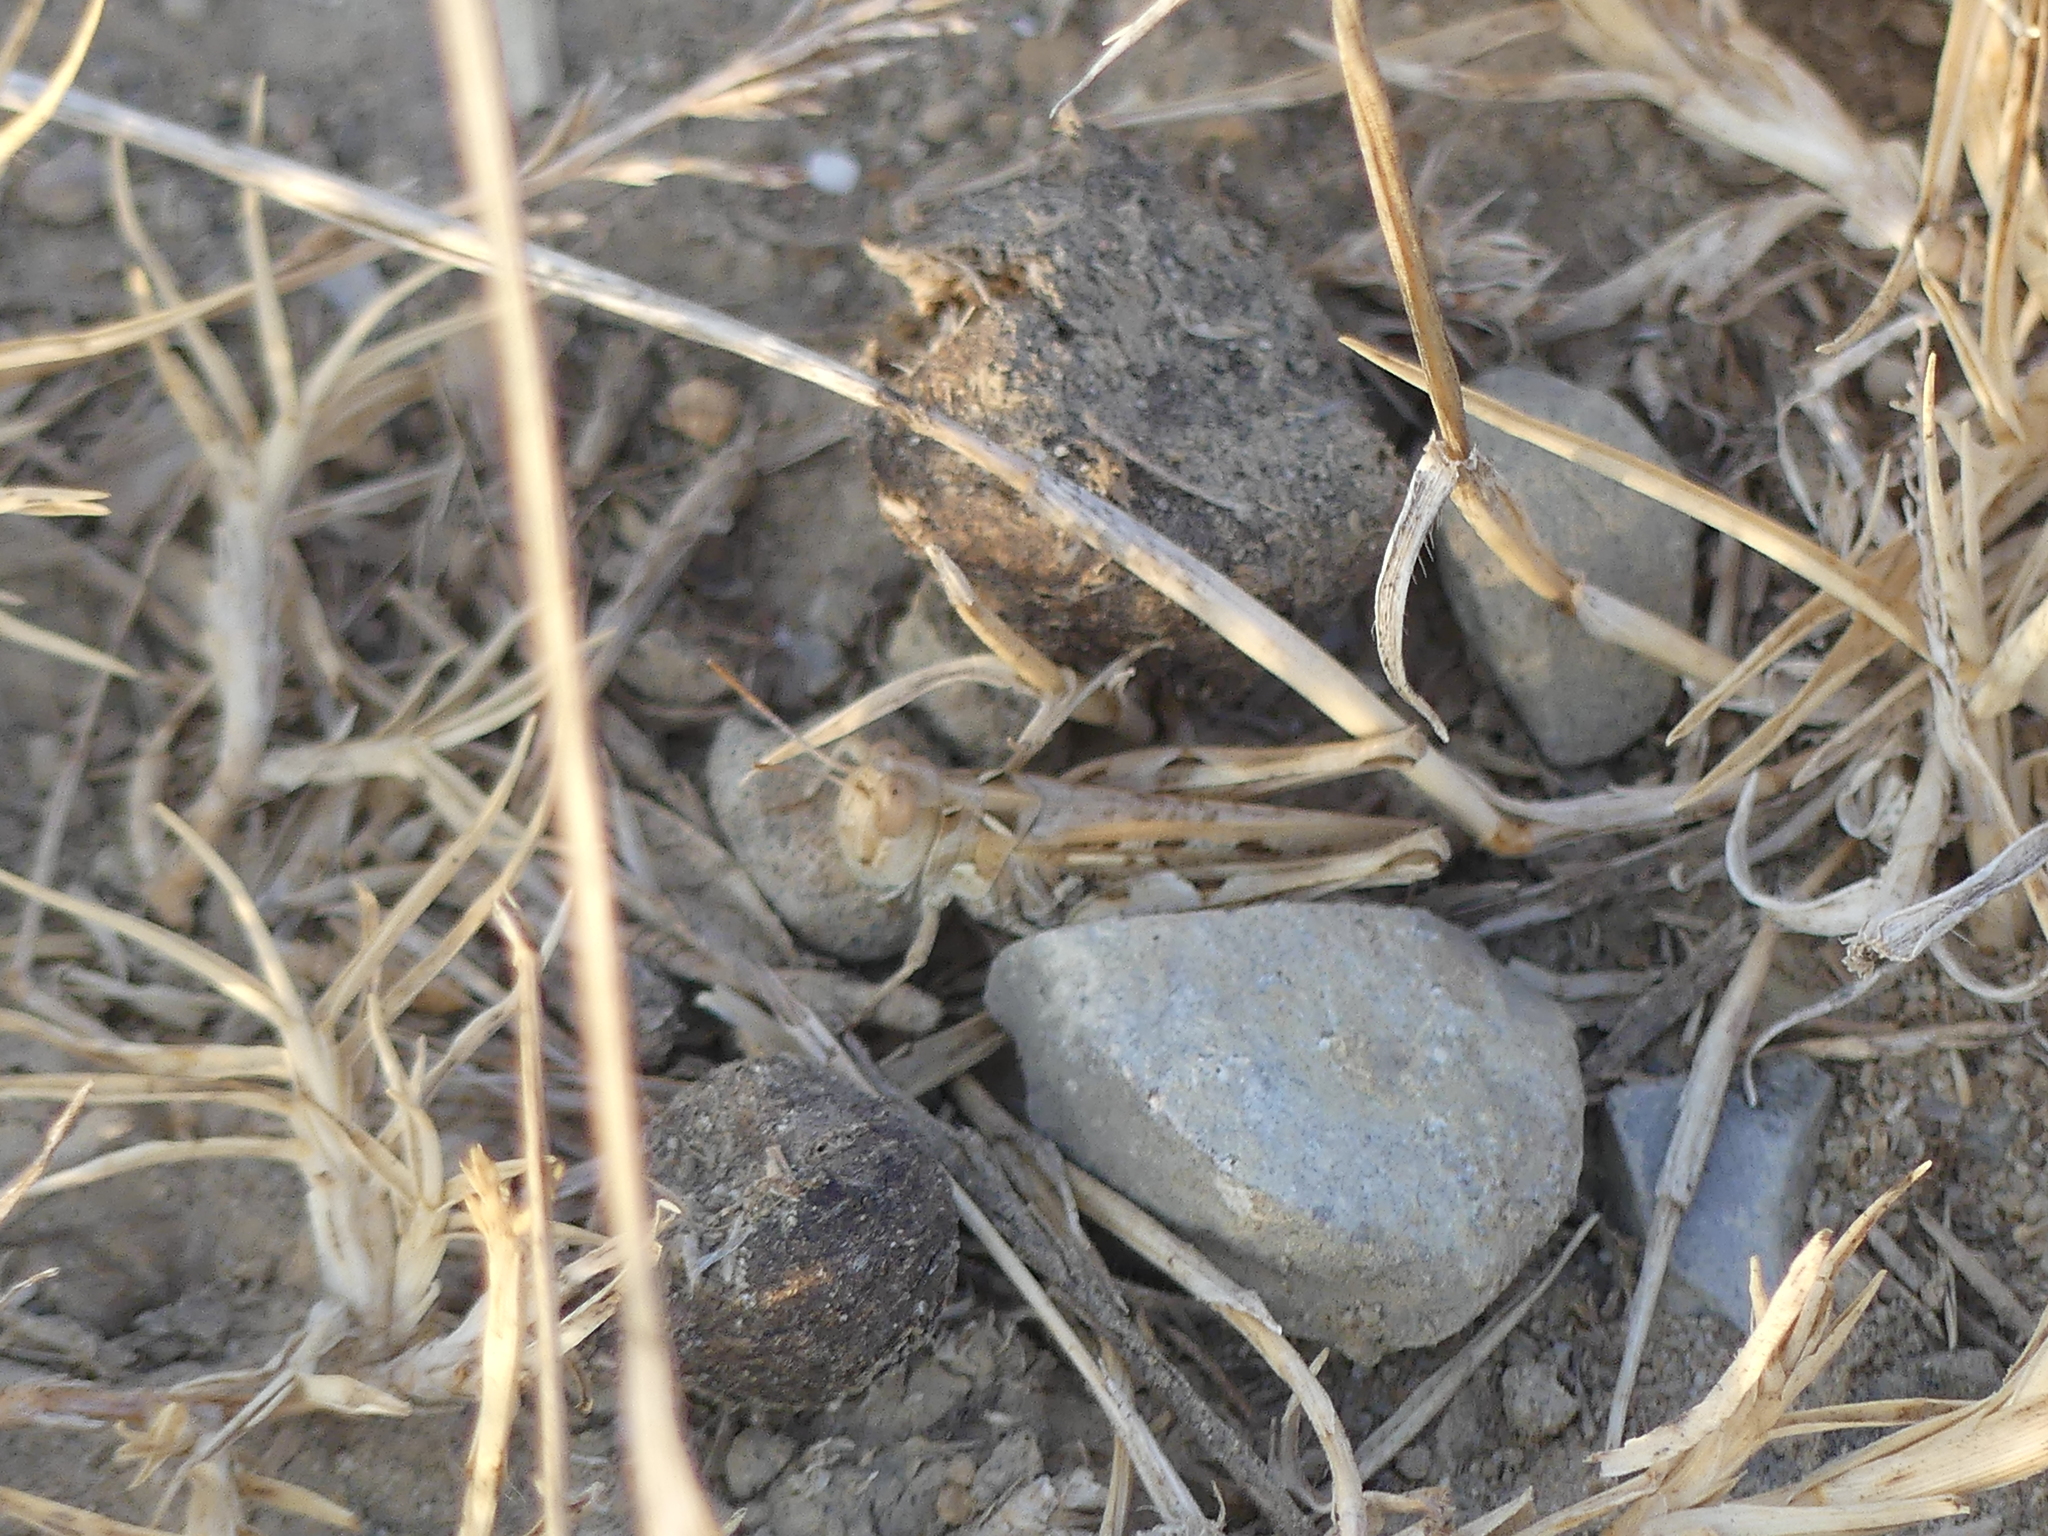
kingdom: Animalia
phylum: Arthropoda
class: Insecta
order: Orthoptera
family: Acrididae
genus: Dociostaurus
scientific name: Dociostaurus jagoi
